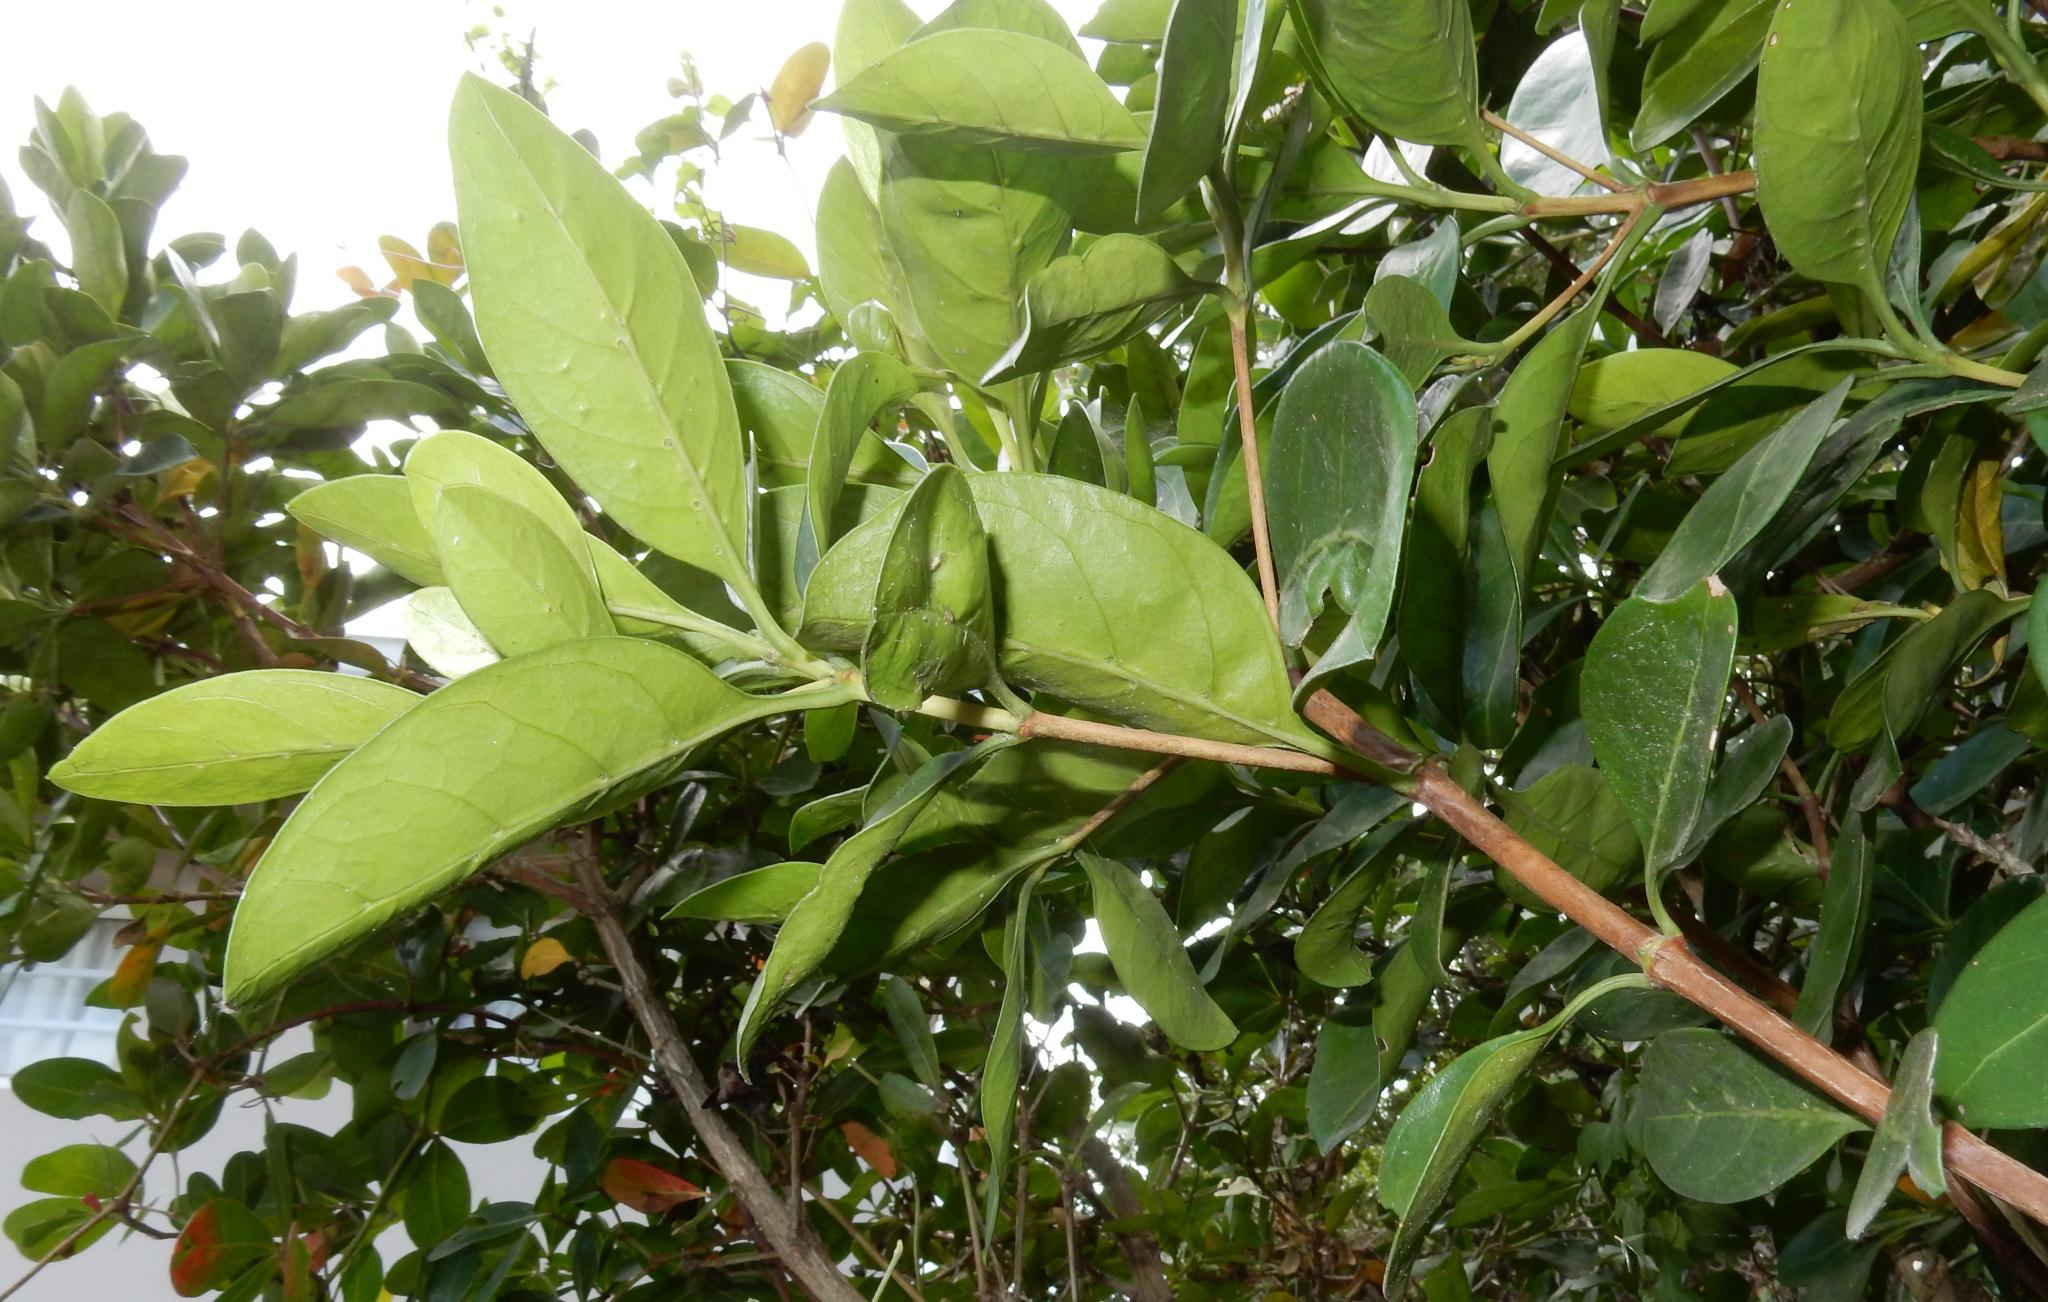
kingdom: Plantae
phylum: Tracheophyta
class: Magnoliopsida
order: Gentianales
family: Rubiaceae
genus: Psydrax
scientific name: Psydrax obovatus
